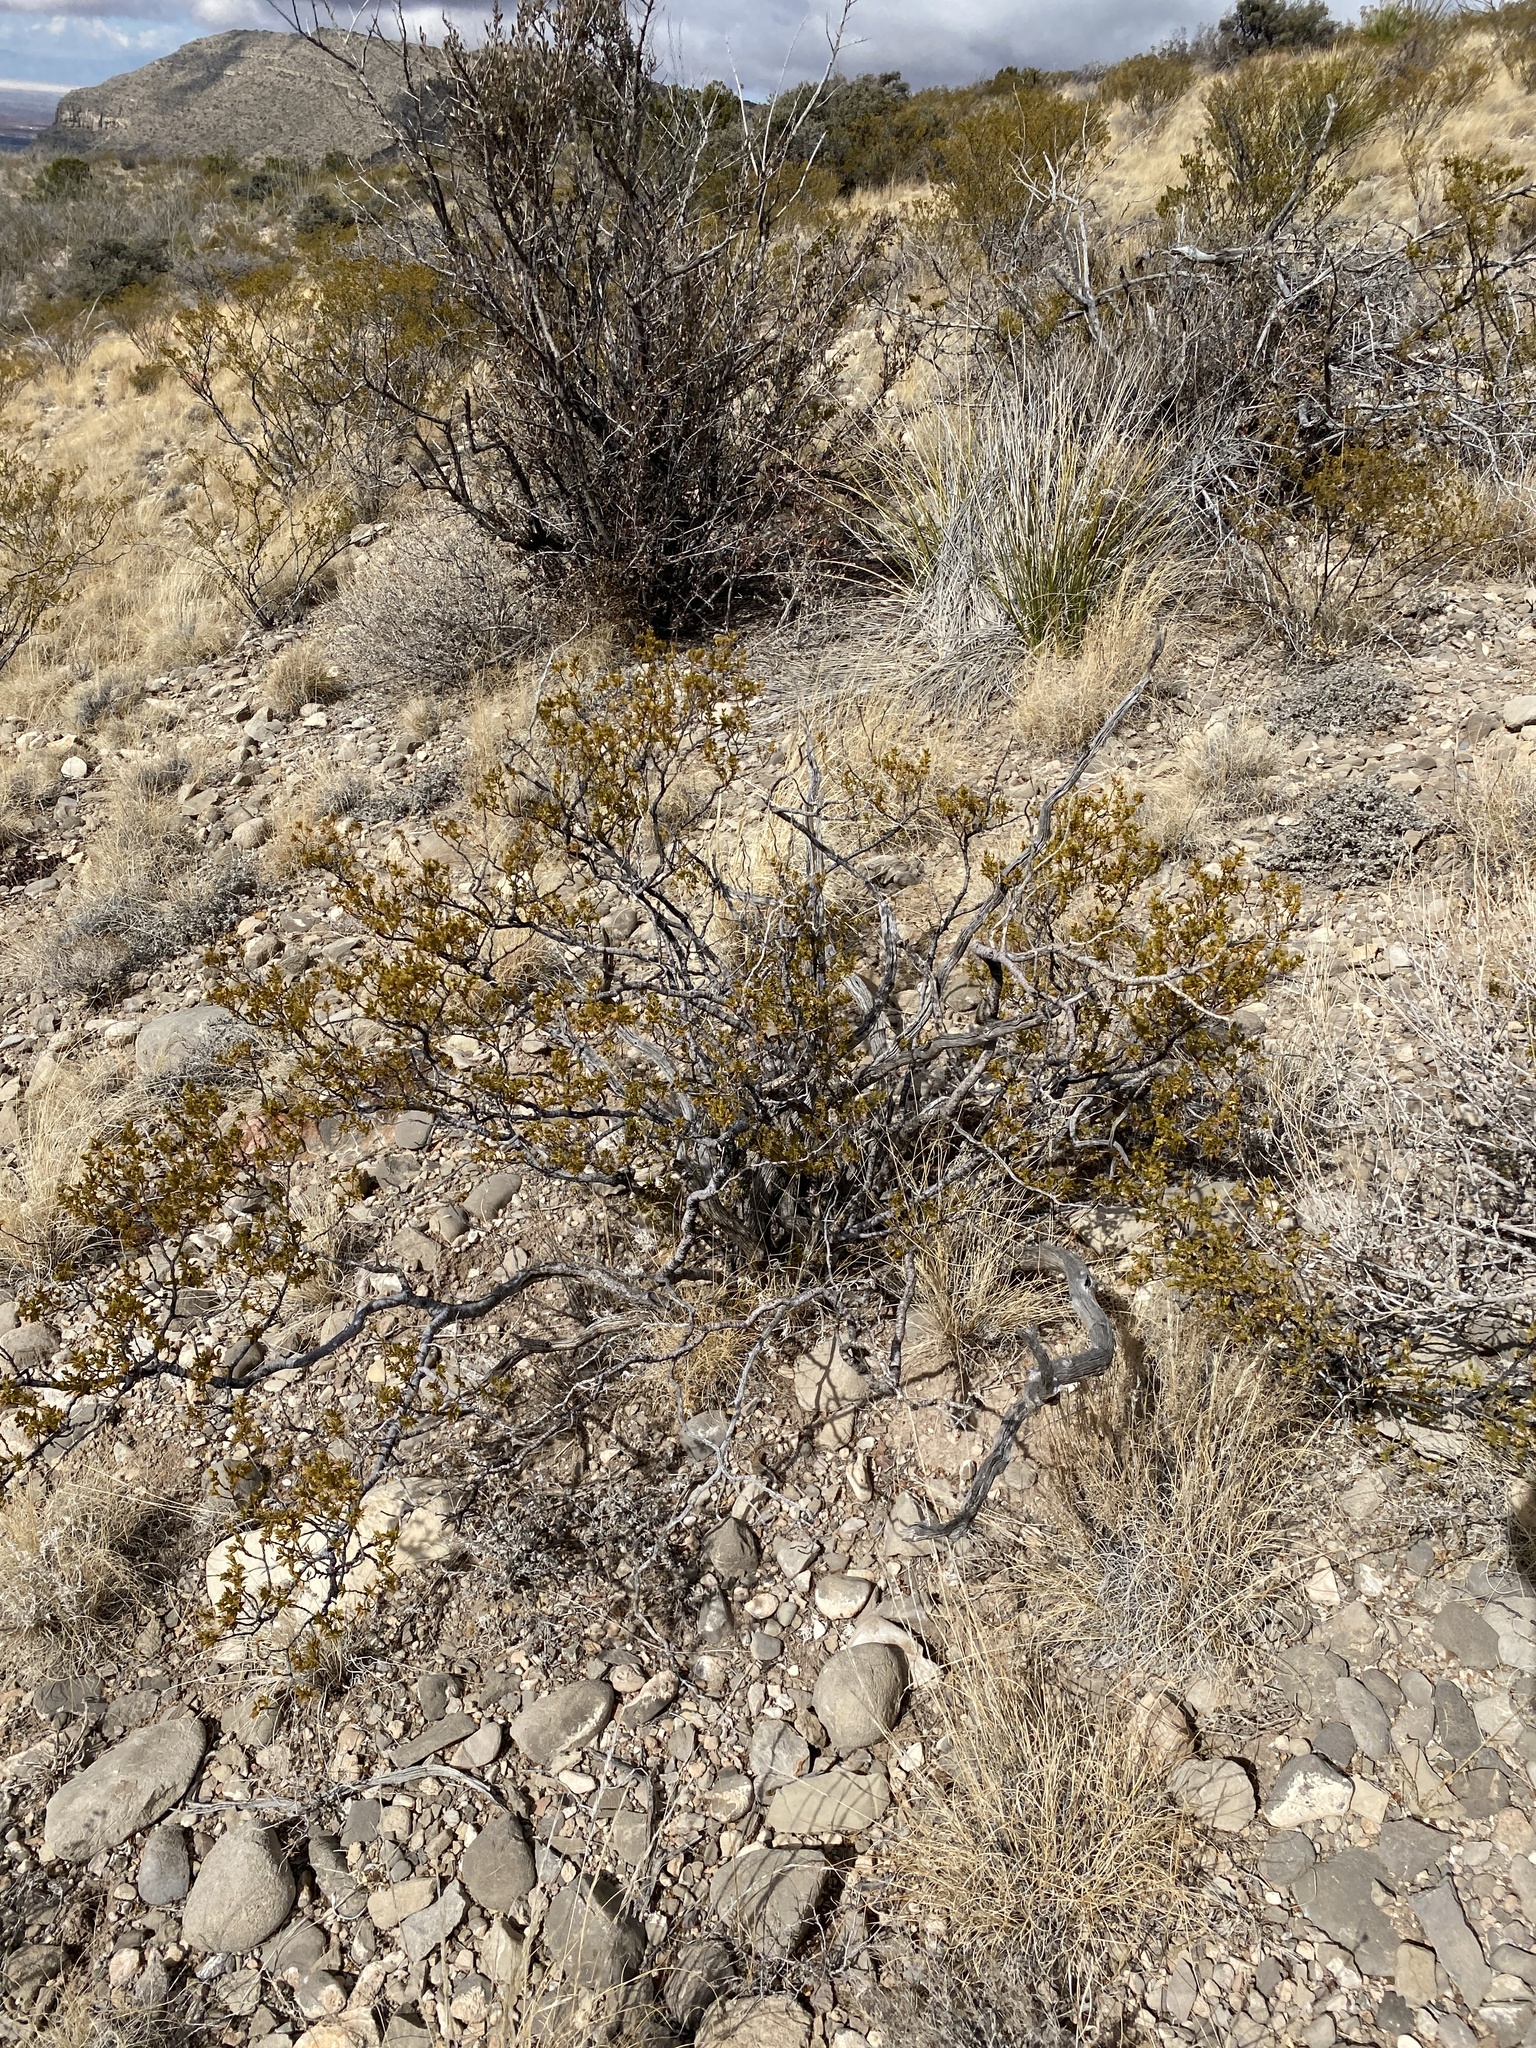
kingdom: Plantae
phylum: Tracheophyta
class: Magnoliopsida
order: Zygophyllales
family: Zygophyllaceae
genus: Larrea
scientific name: Larrea tridentata
